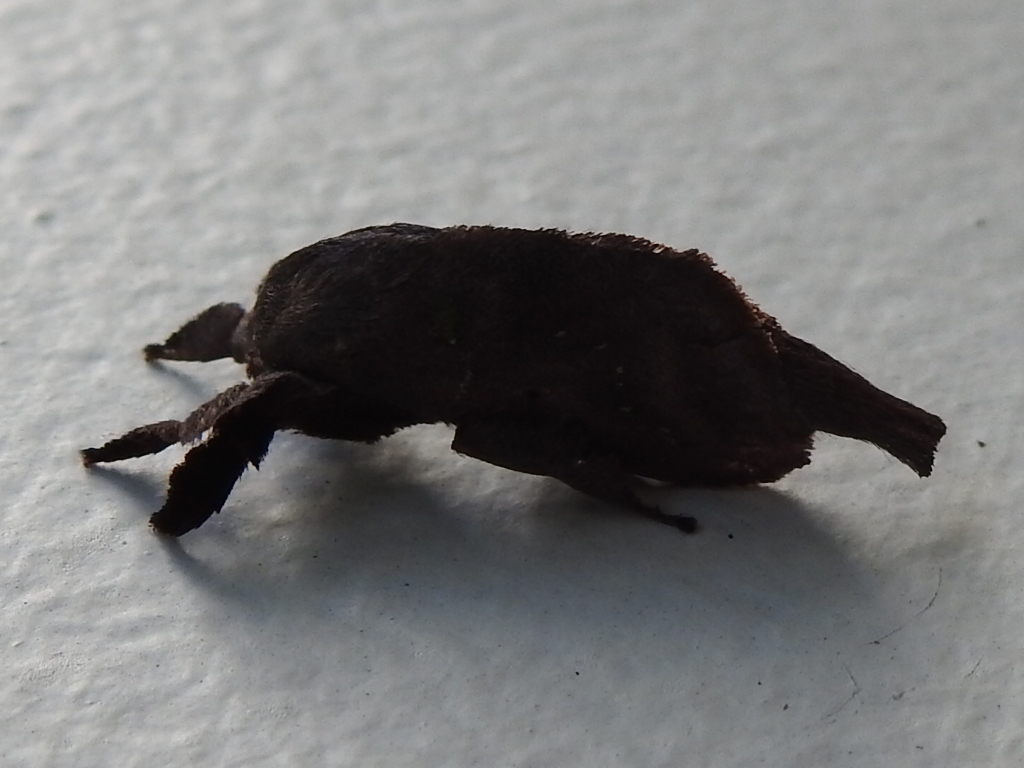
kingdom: Animalia
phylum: Arthropoda
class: Insecta
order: Lepidoptera
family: Limacodidae
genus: Euclea
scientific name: Euclea norba
